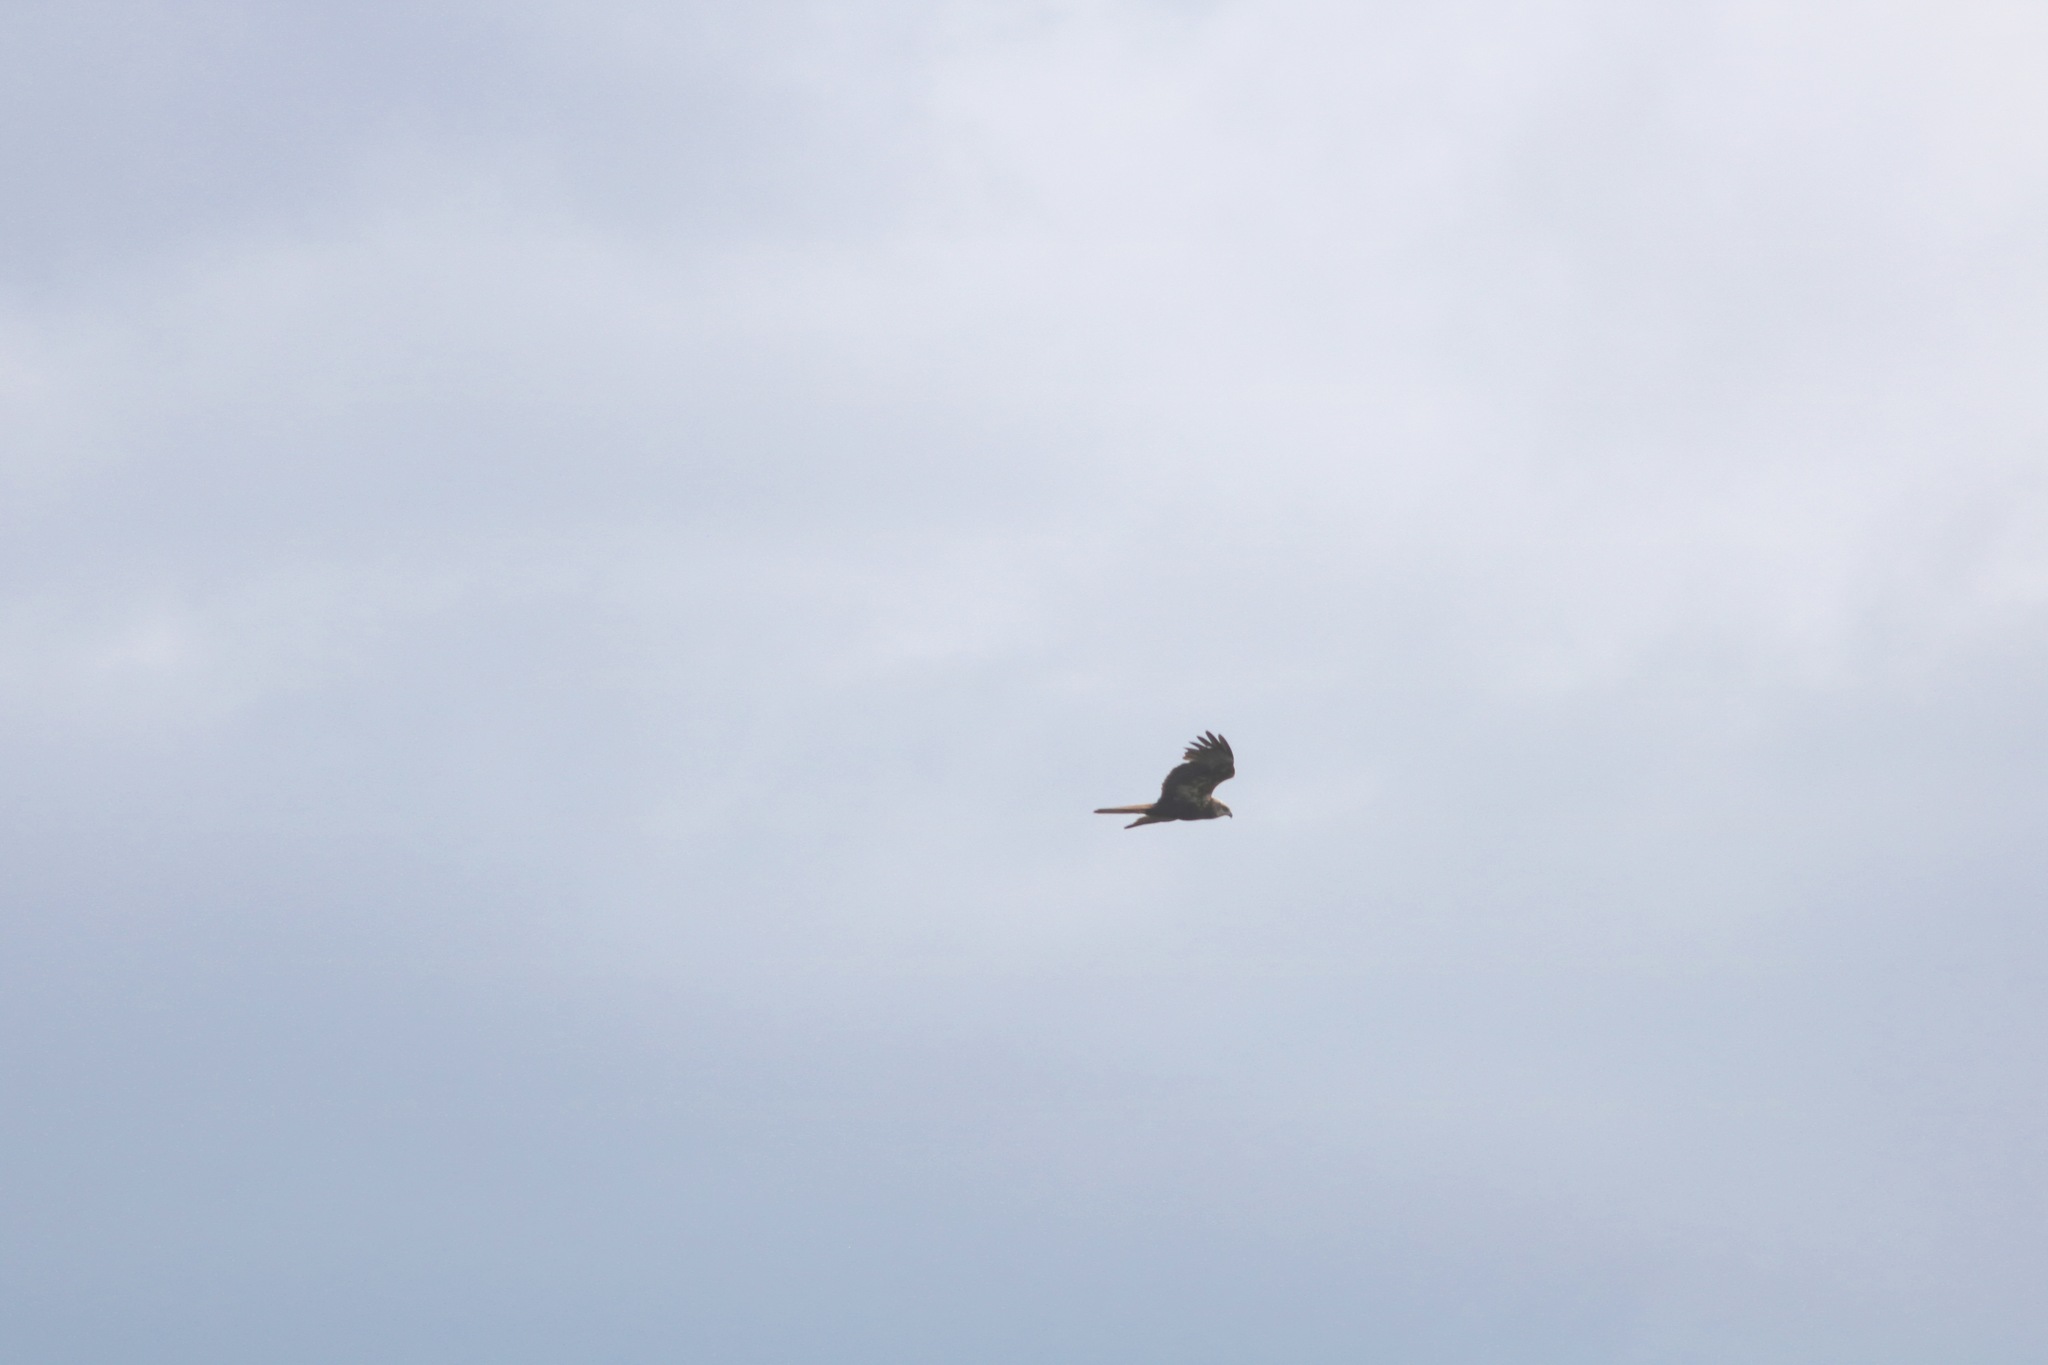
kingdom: Animalia
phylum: Chordata
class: Aves
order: Accipitriformes
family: Accipitridae
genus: Circus
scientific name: Circus aeruginosus
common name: Western marsh harrier
